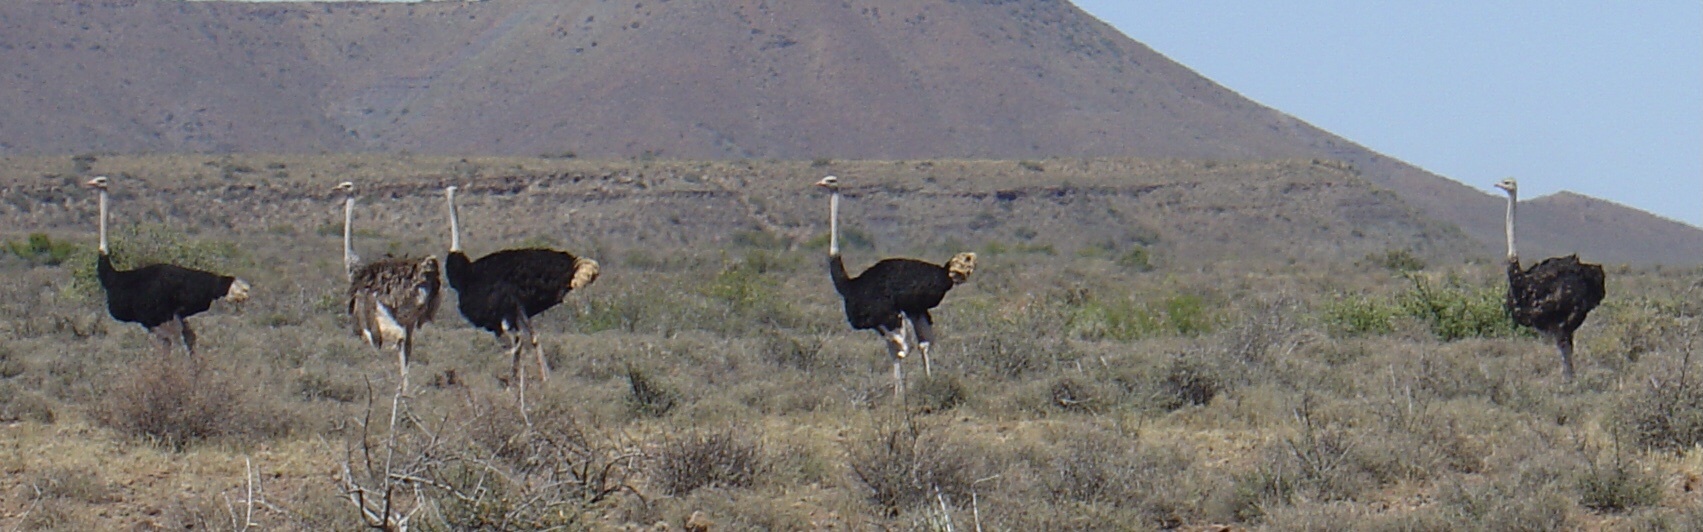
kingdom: Animalia
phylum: Chordata
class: Aves
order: Struthioniformes
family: Struthionidae
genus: Struthio
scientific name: Struthio camelus
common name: Common ostrich
